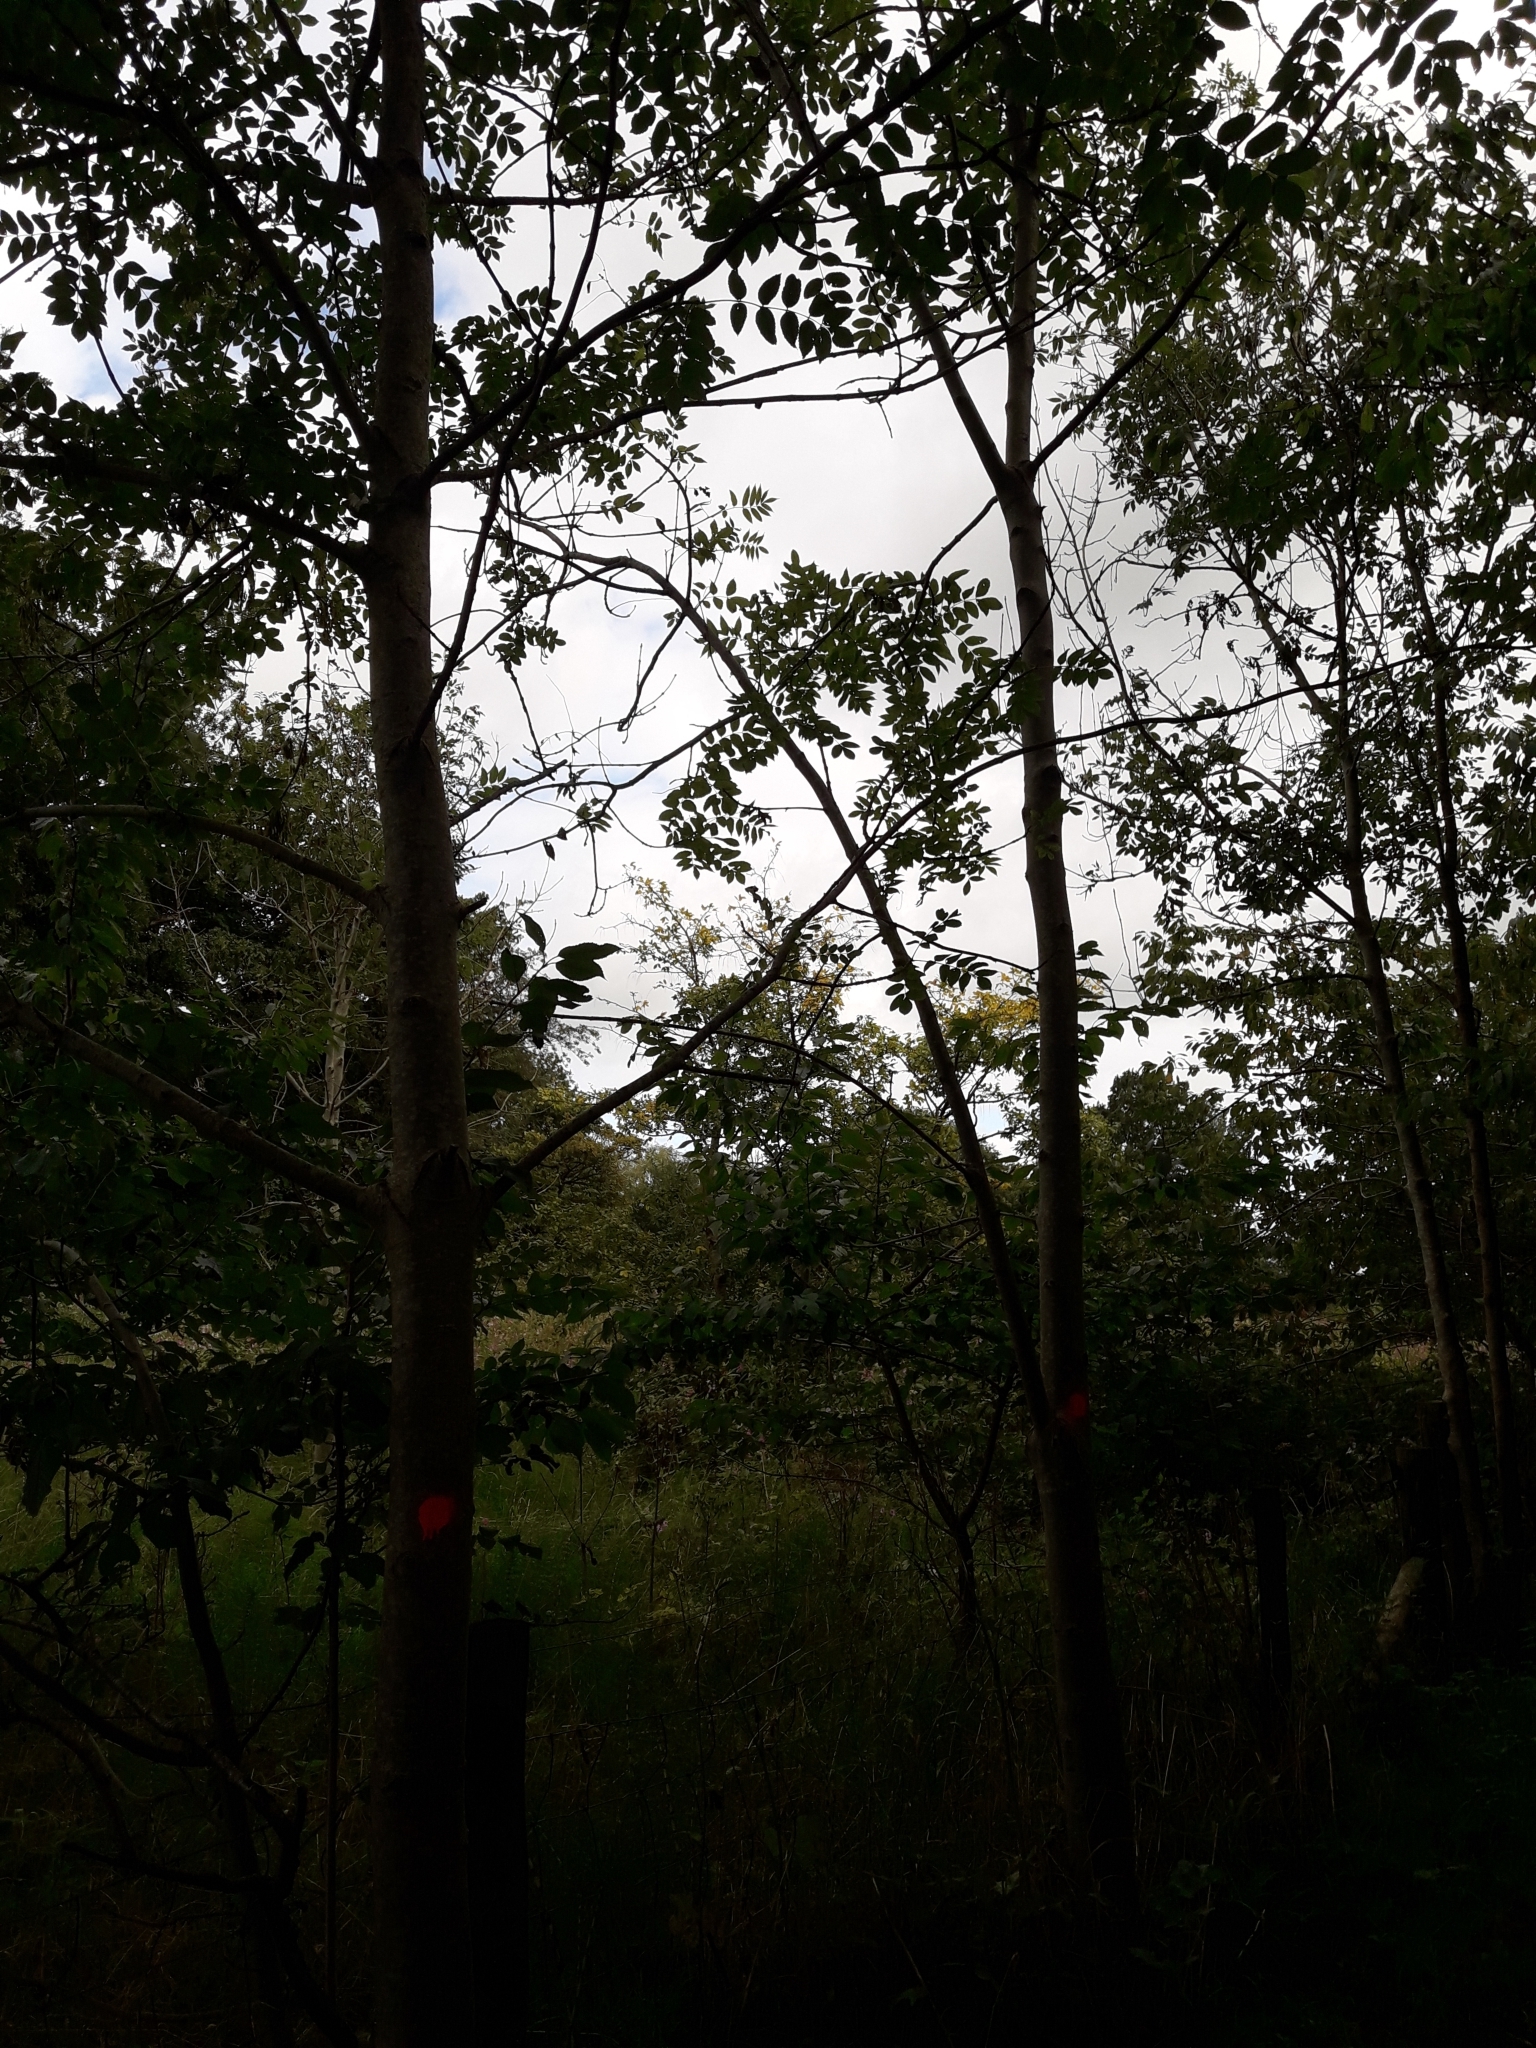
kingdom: Plantae
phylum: Tracheophyta
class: Magnoliopsida
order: Lamiales
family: Oleaceae
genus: Fraxinus
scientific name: Fraxinus excelsior
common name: European ash
